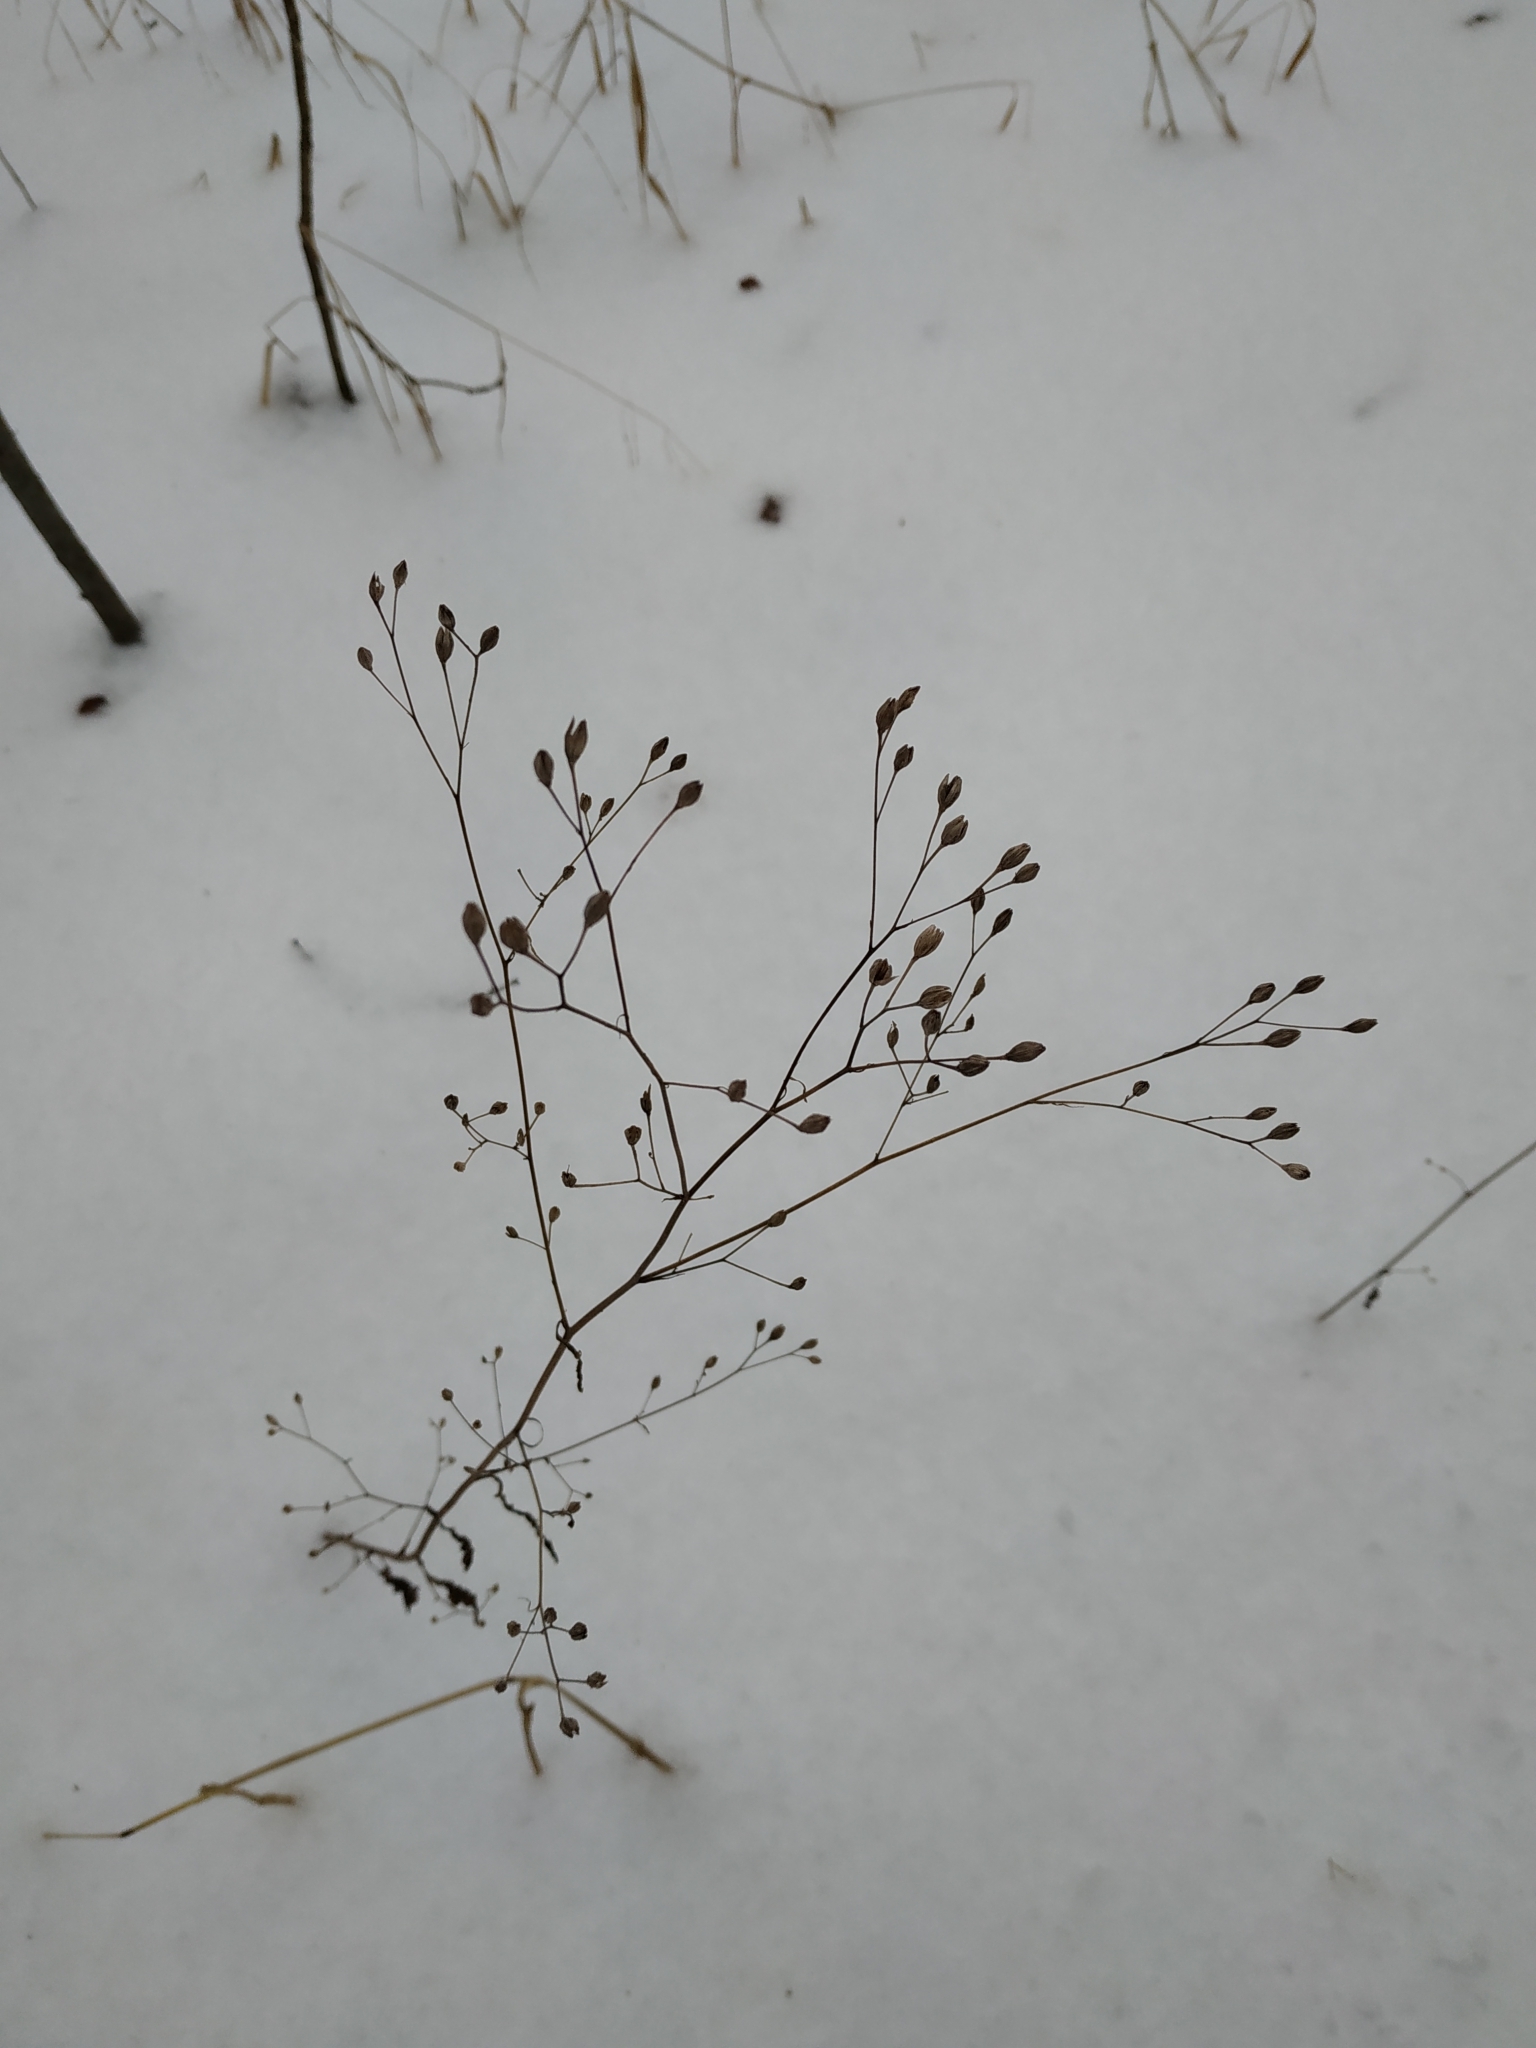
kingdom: Plantae
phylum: Tracheophyta
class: Magnoliopsida
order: Asterales
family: Asteraceae
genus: Lapsana
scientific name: Lapsana communis
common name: Nipplewort
